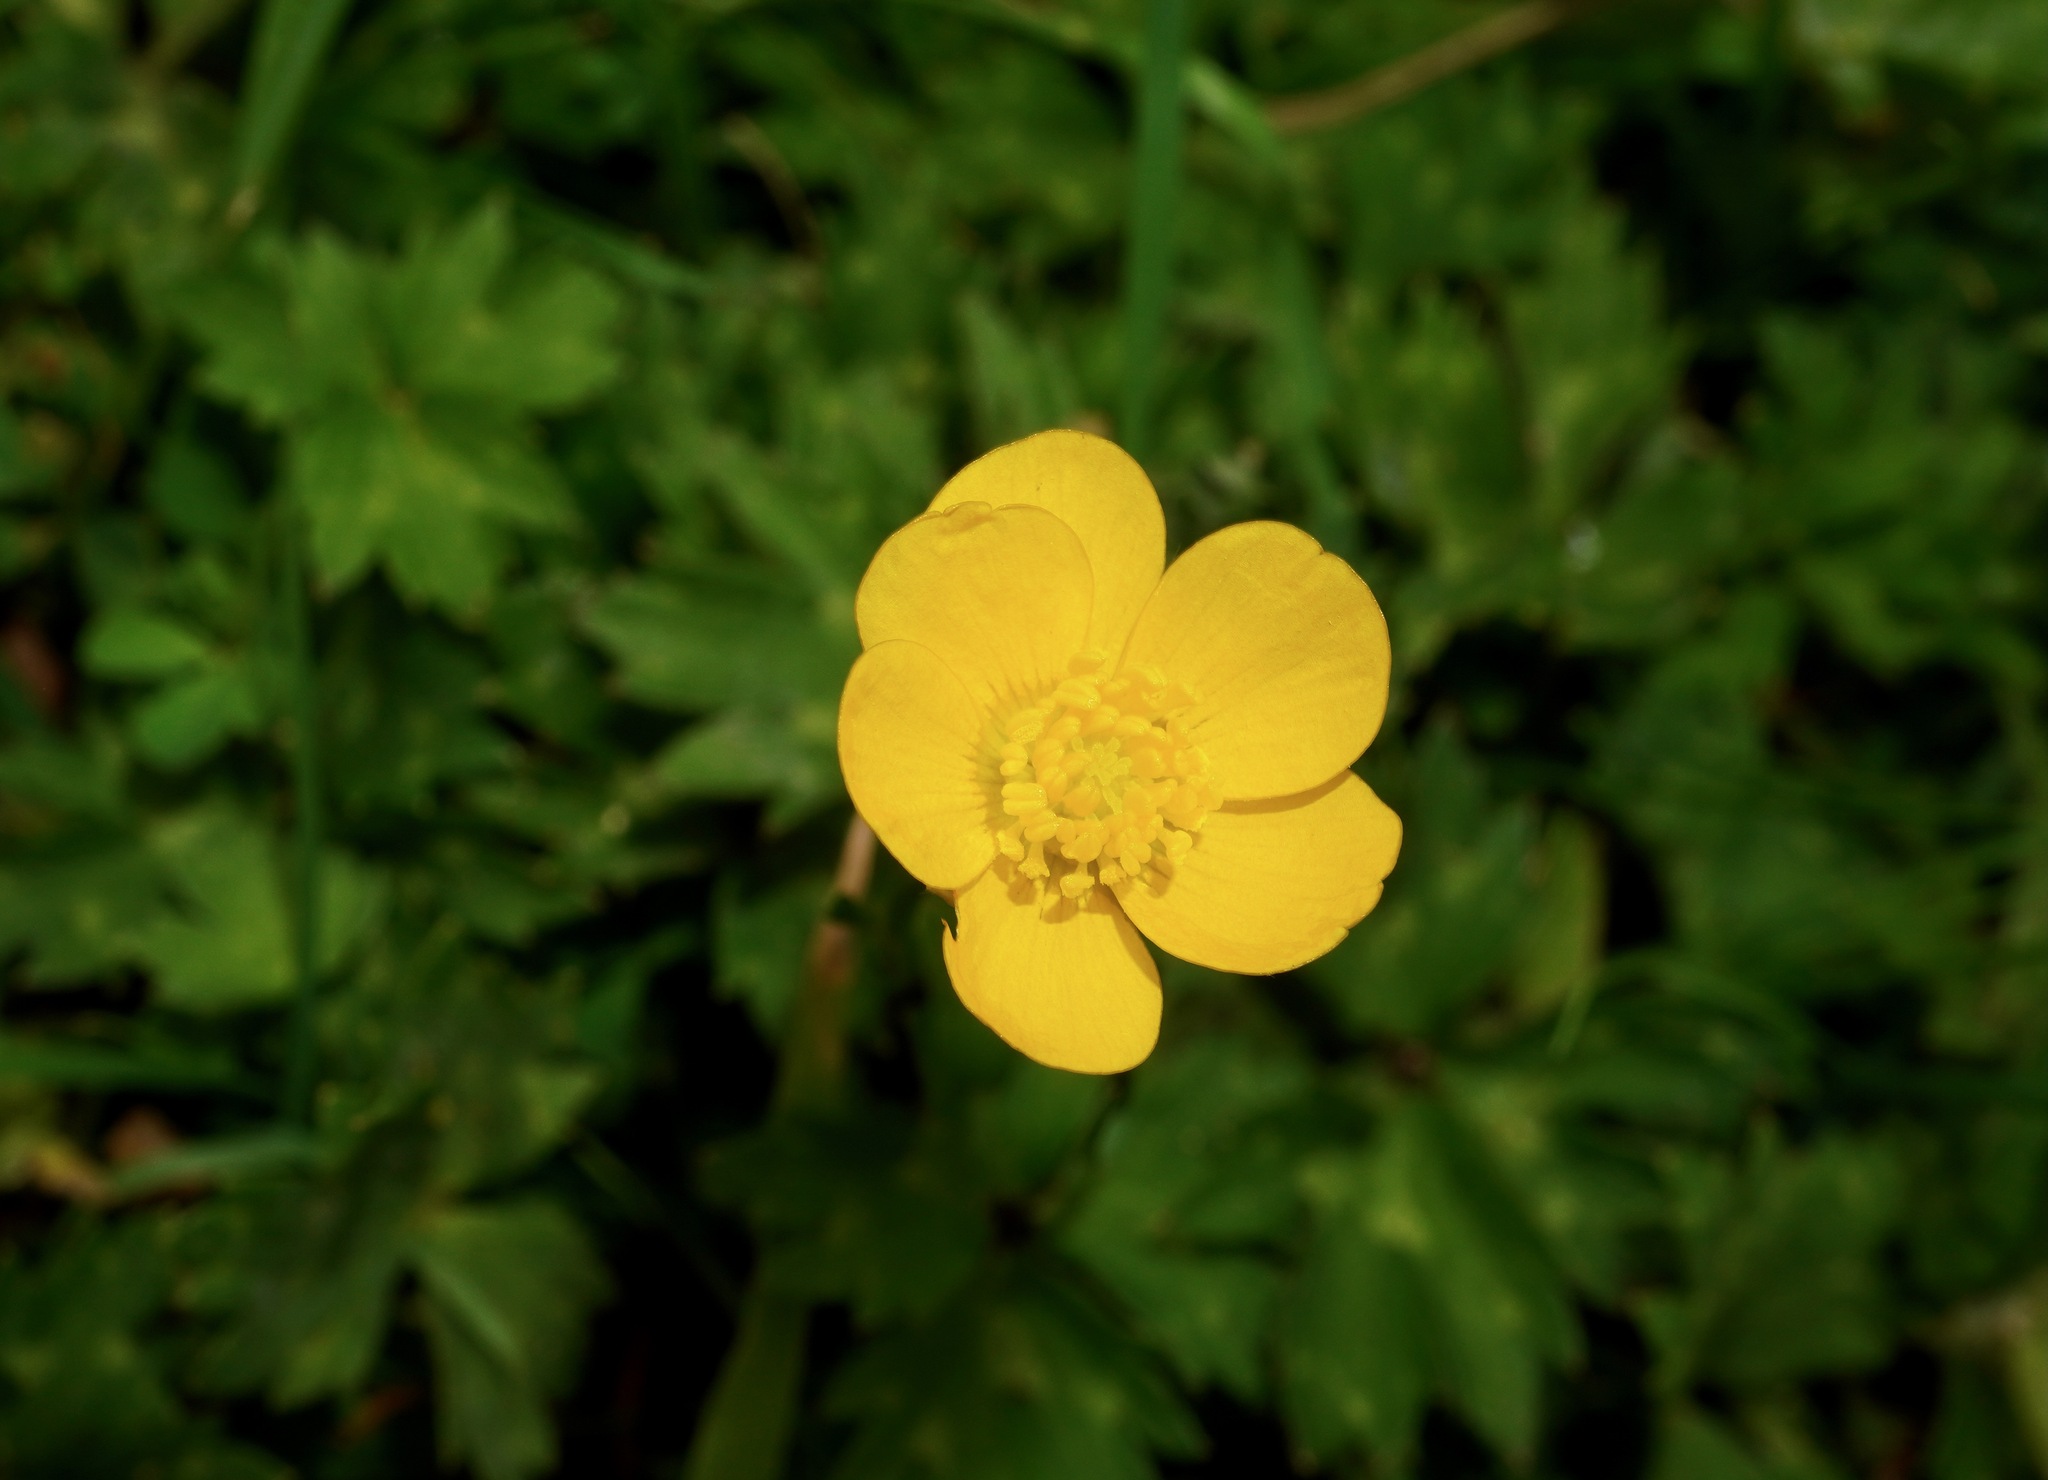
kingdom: Plantae
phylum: Tracheophyta
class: Magnoliopsida
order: Ranunculales
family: Ranunculaceae
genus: Ranunculus
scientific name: Ranunculus repens
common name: Creeping buttercup
